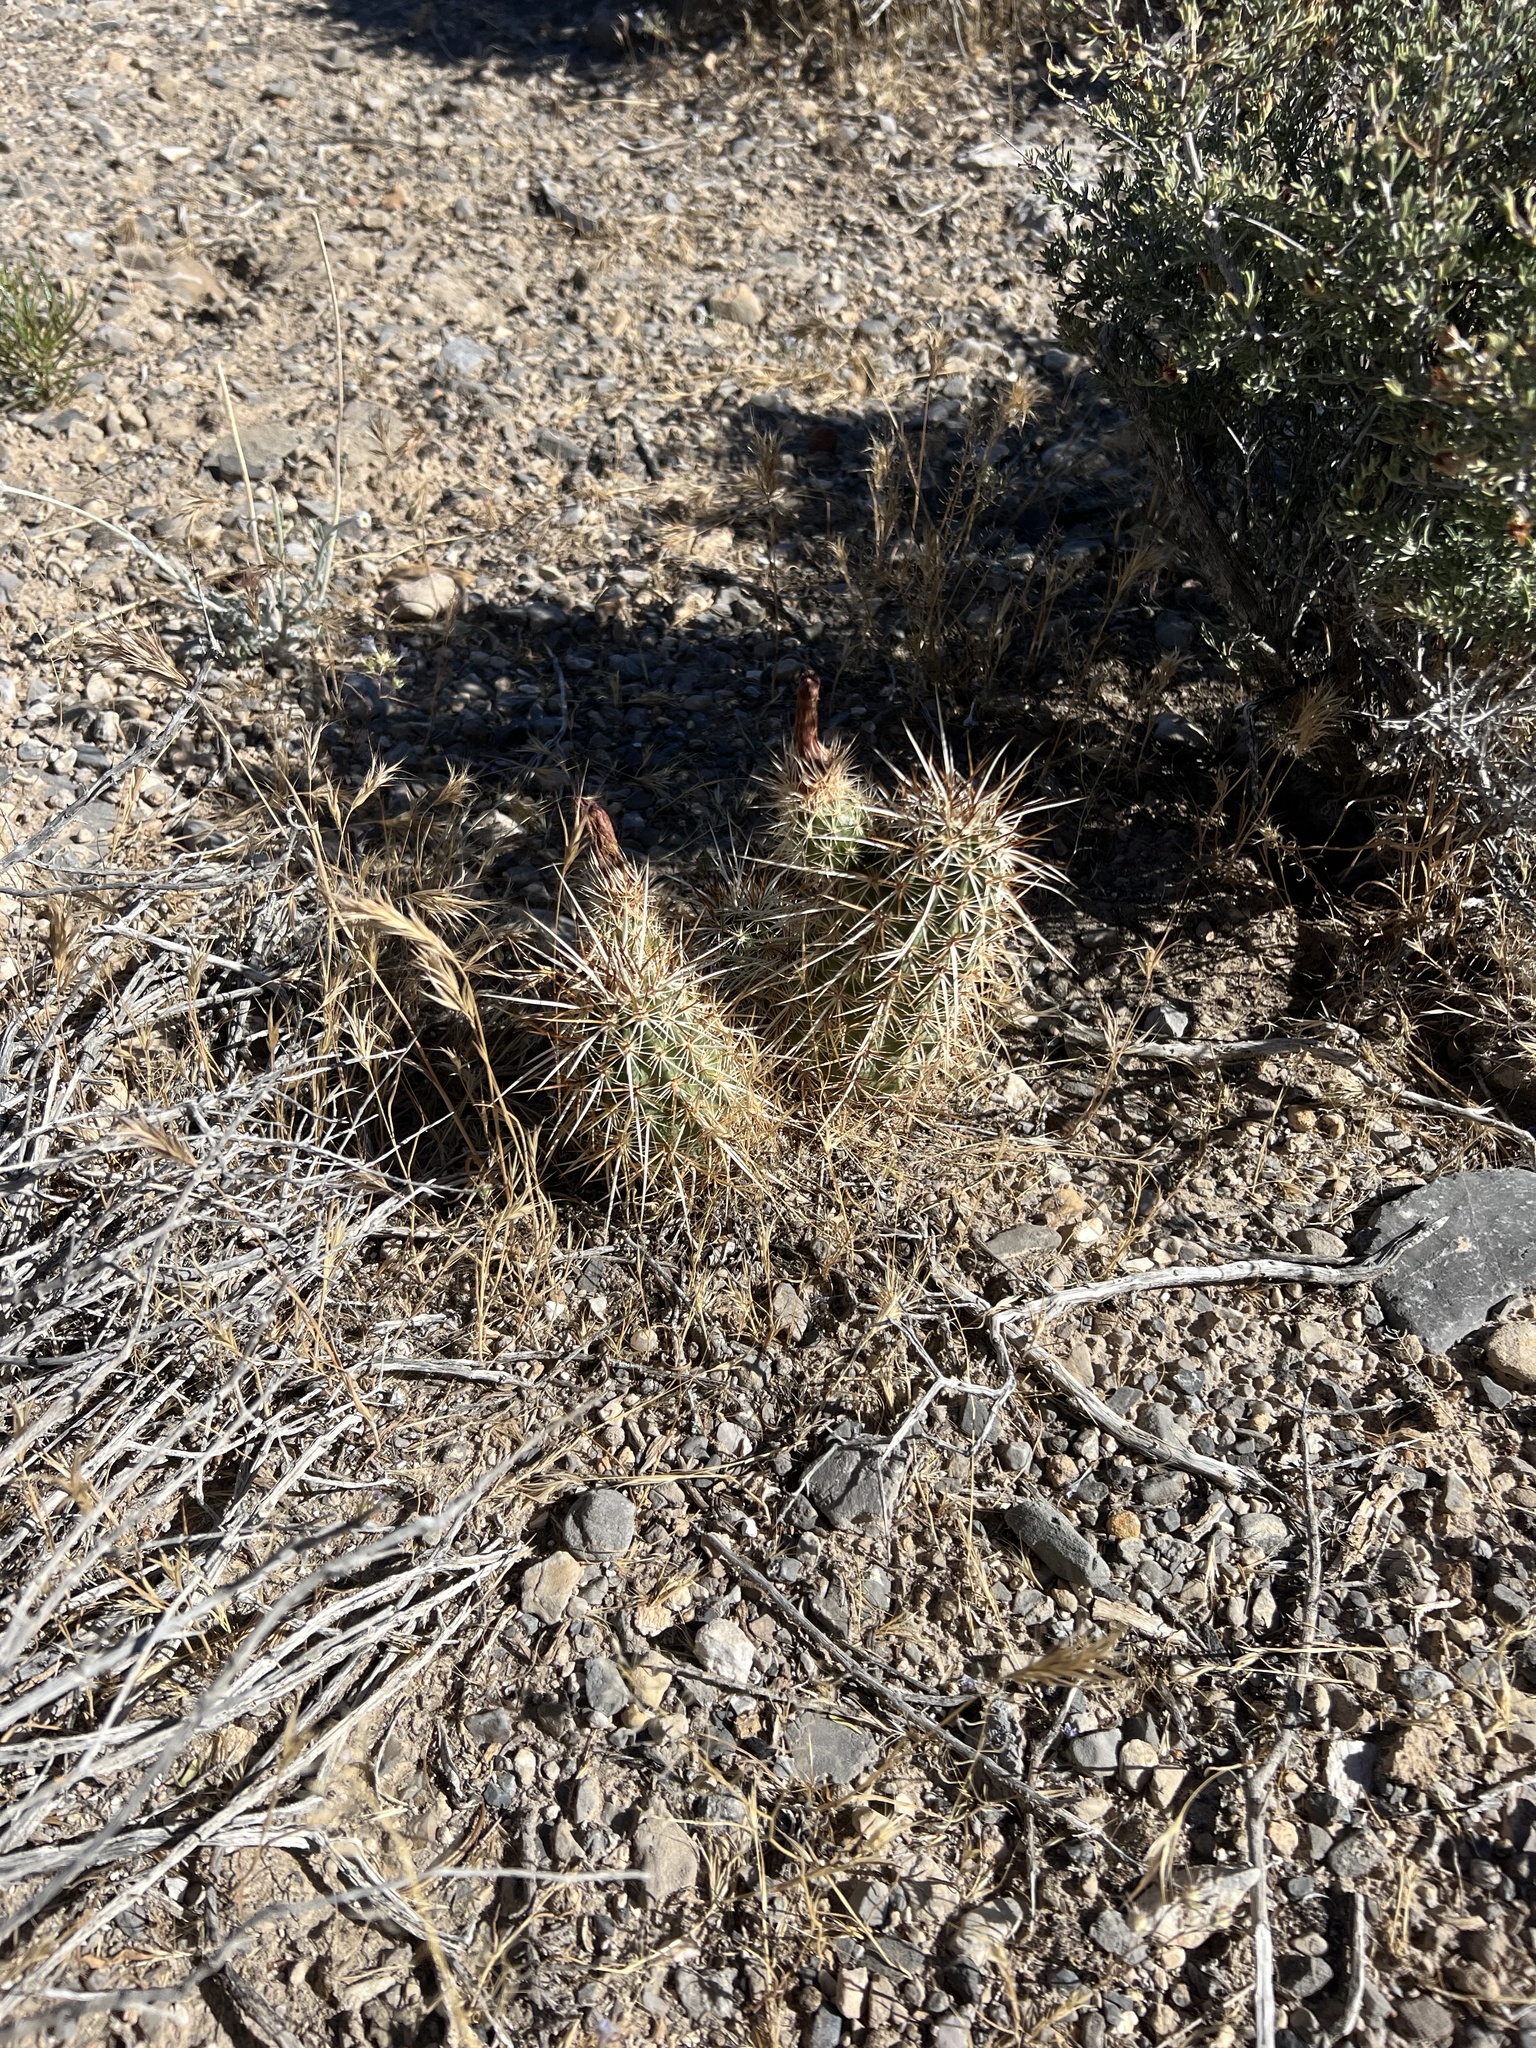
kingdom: Plantae
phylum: Tracheophyta
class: Magnoliopsida
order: Caryophyllales
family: Cactaceae
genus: Echinocereus
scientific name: Echinocereus engelmannii
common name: Engelmann's hedgehog cactus
